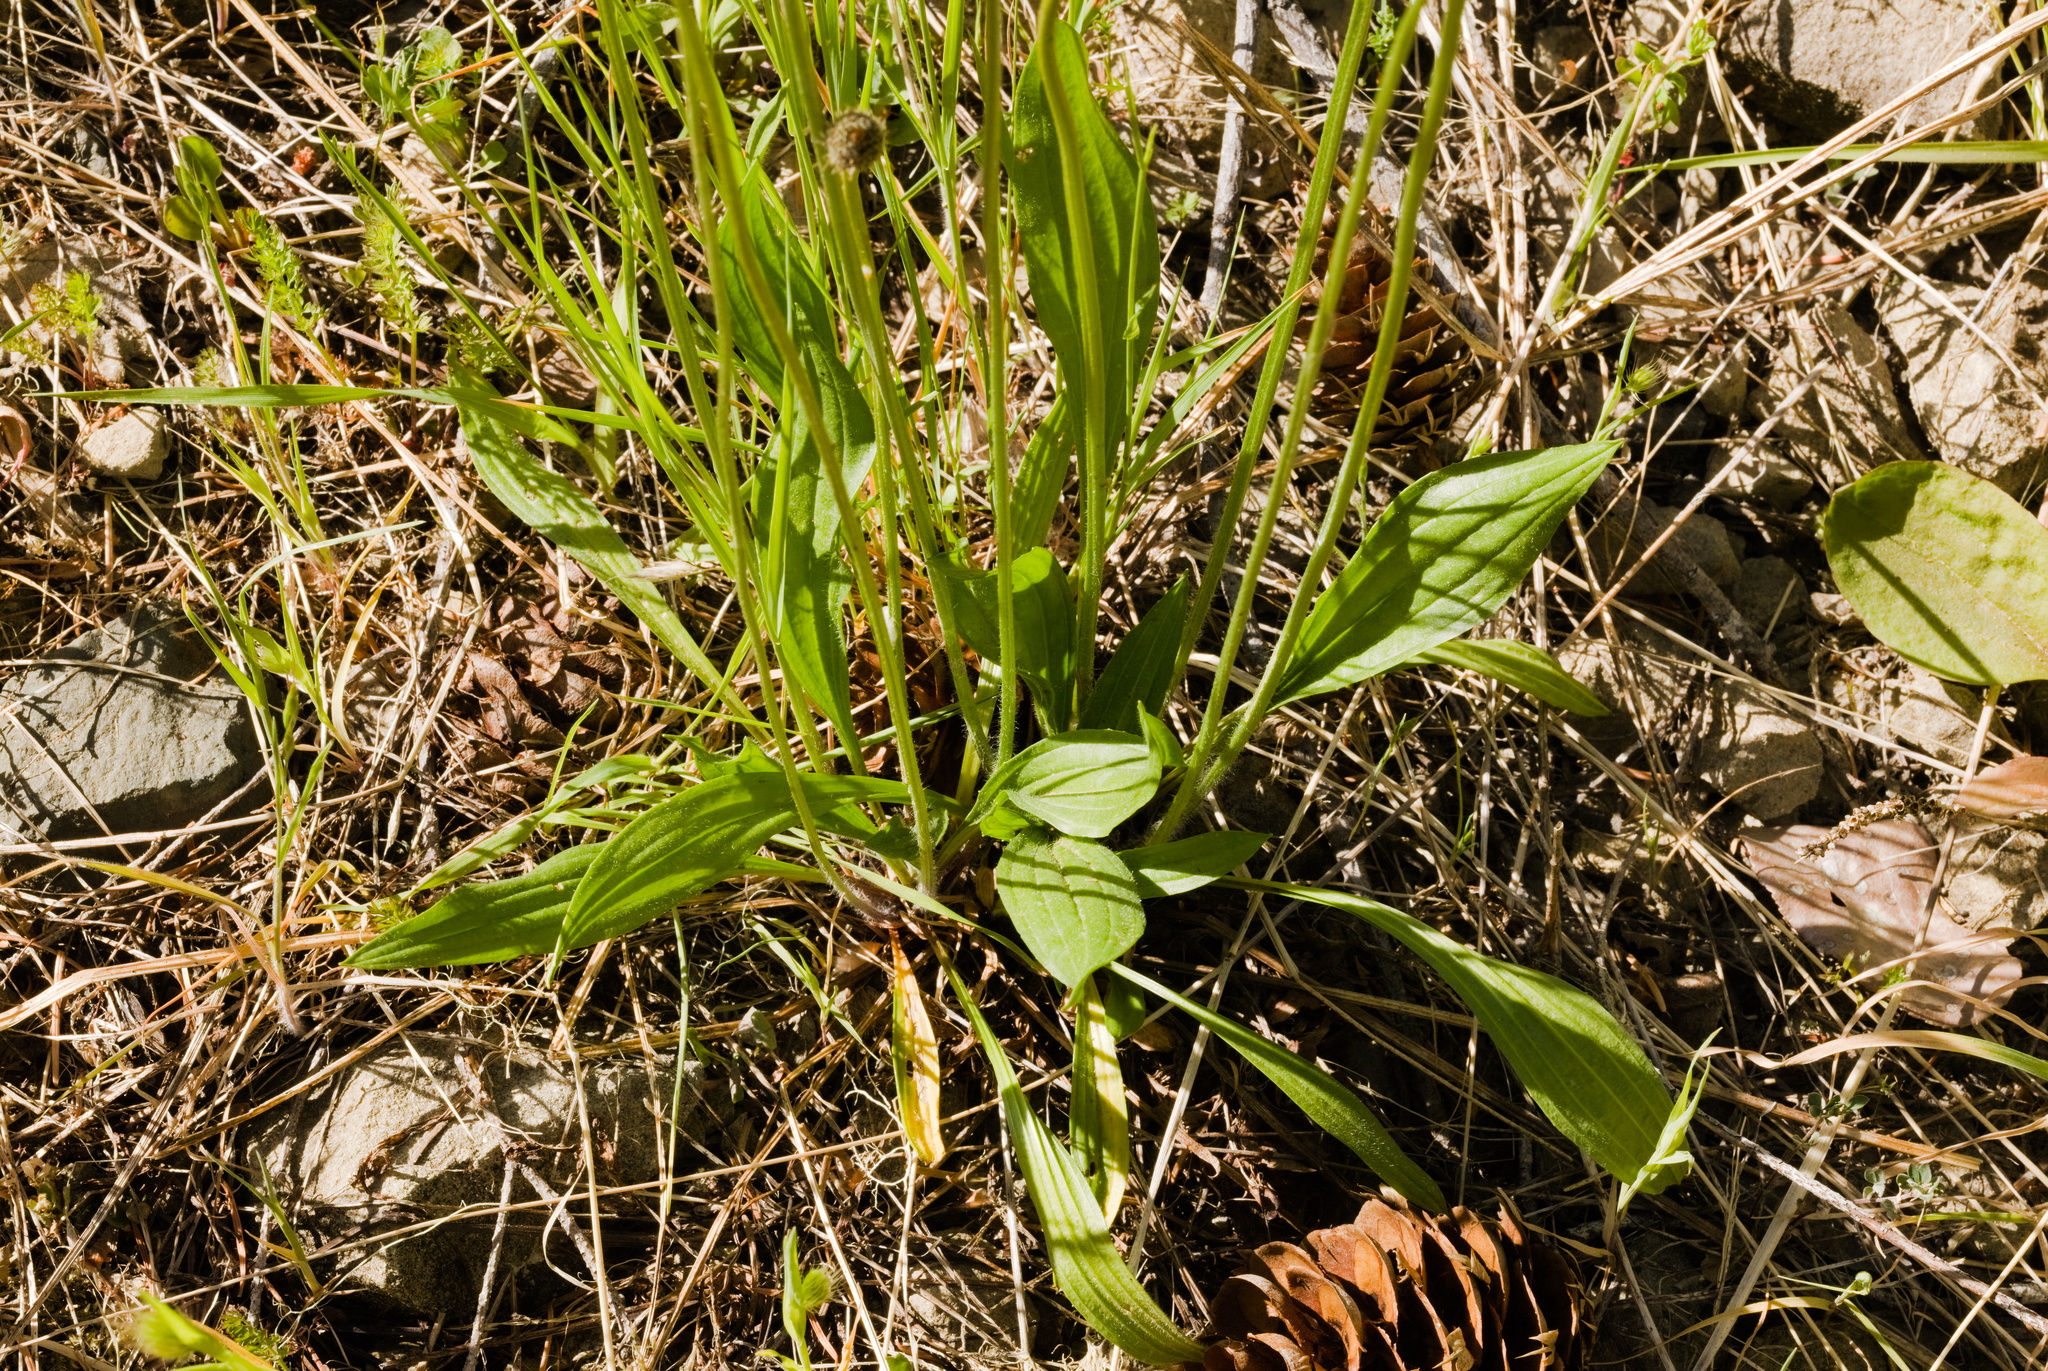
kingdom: Plantae
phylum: Tracheophyta
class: Magnoliopsida
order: Lamiales
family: Plantaginaceae
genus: Plantago
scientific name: Plantago lanceolata
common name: Ribwort plantain
